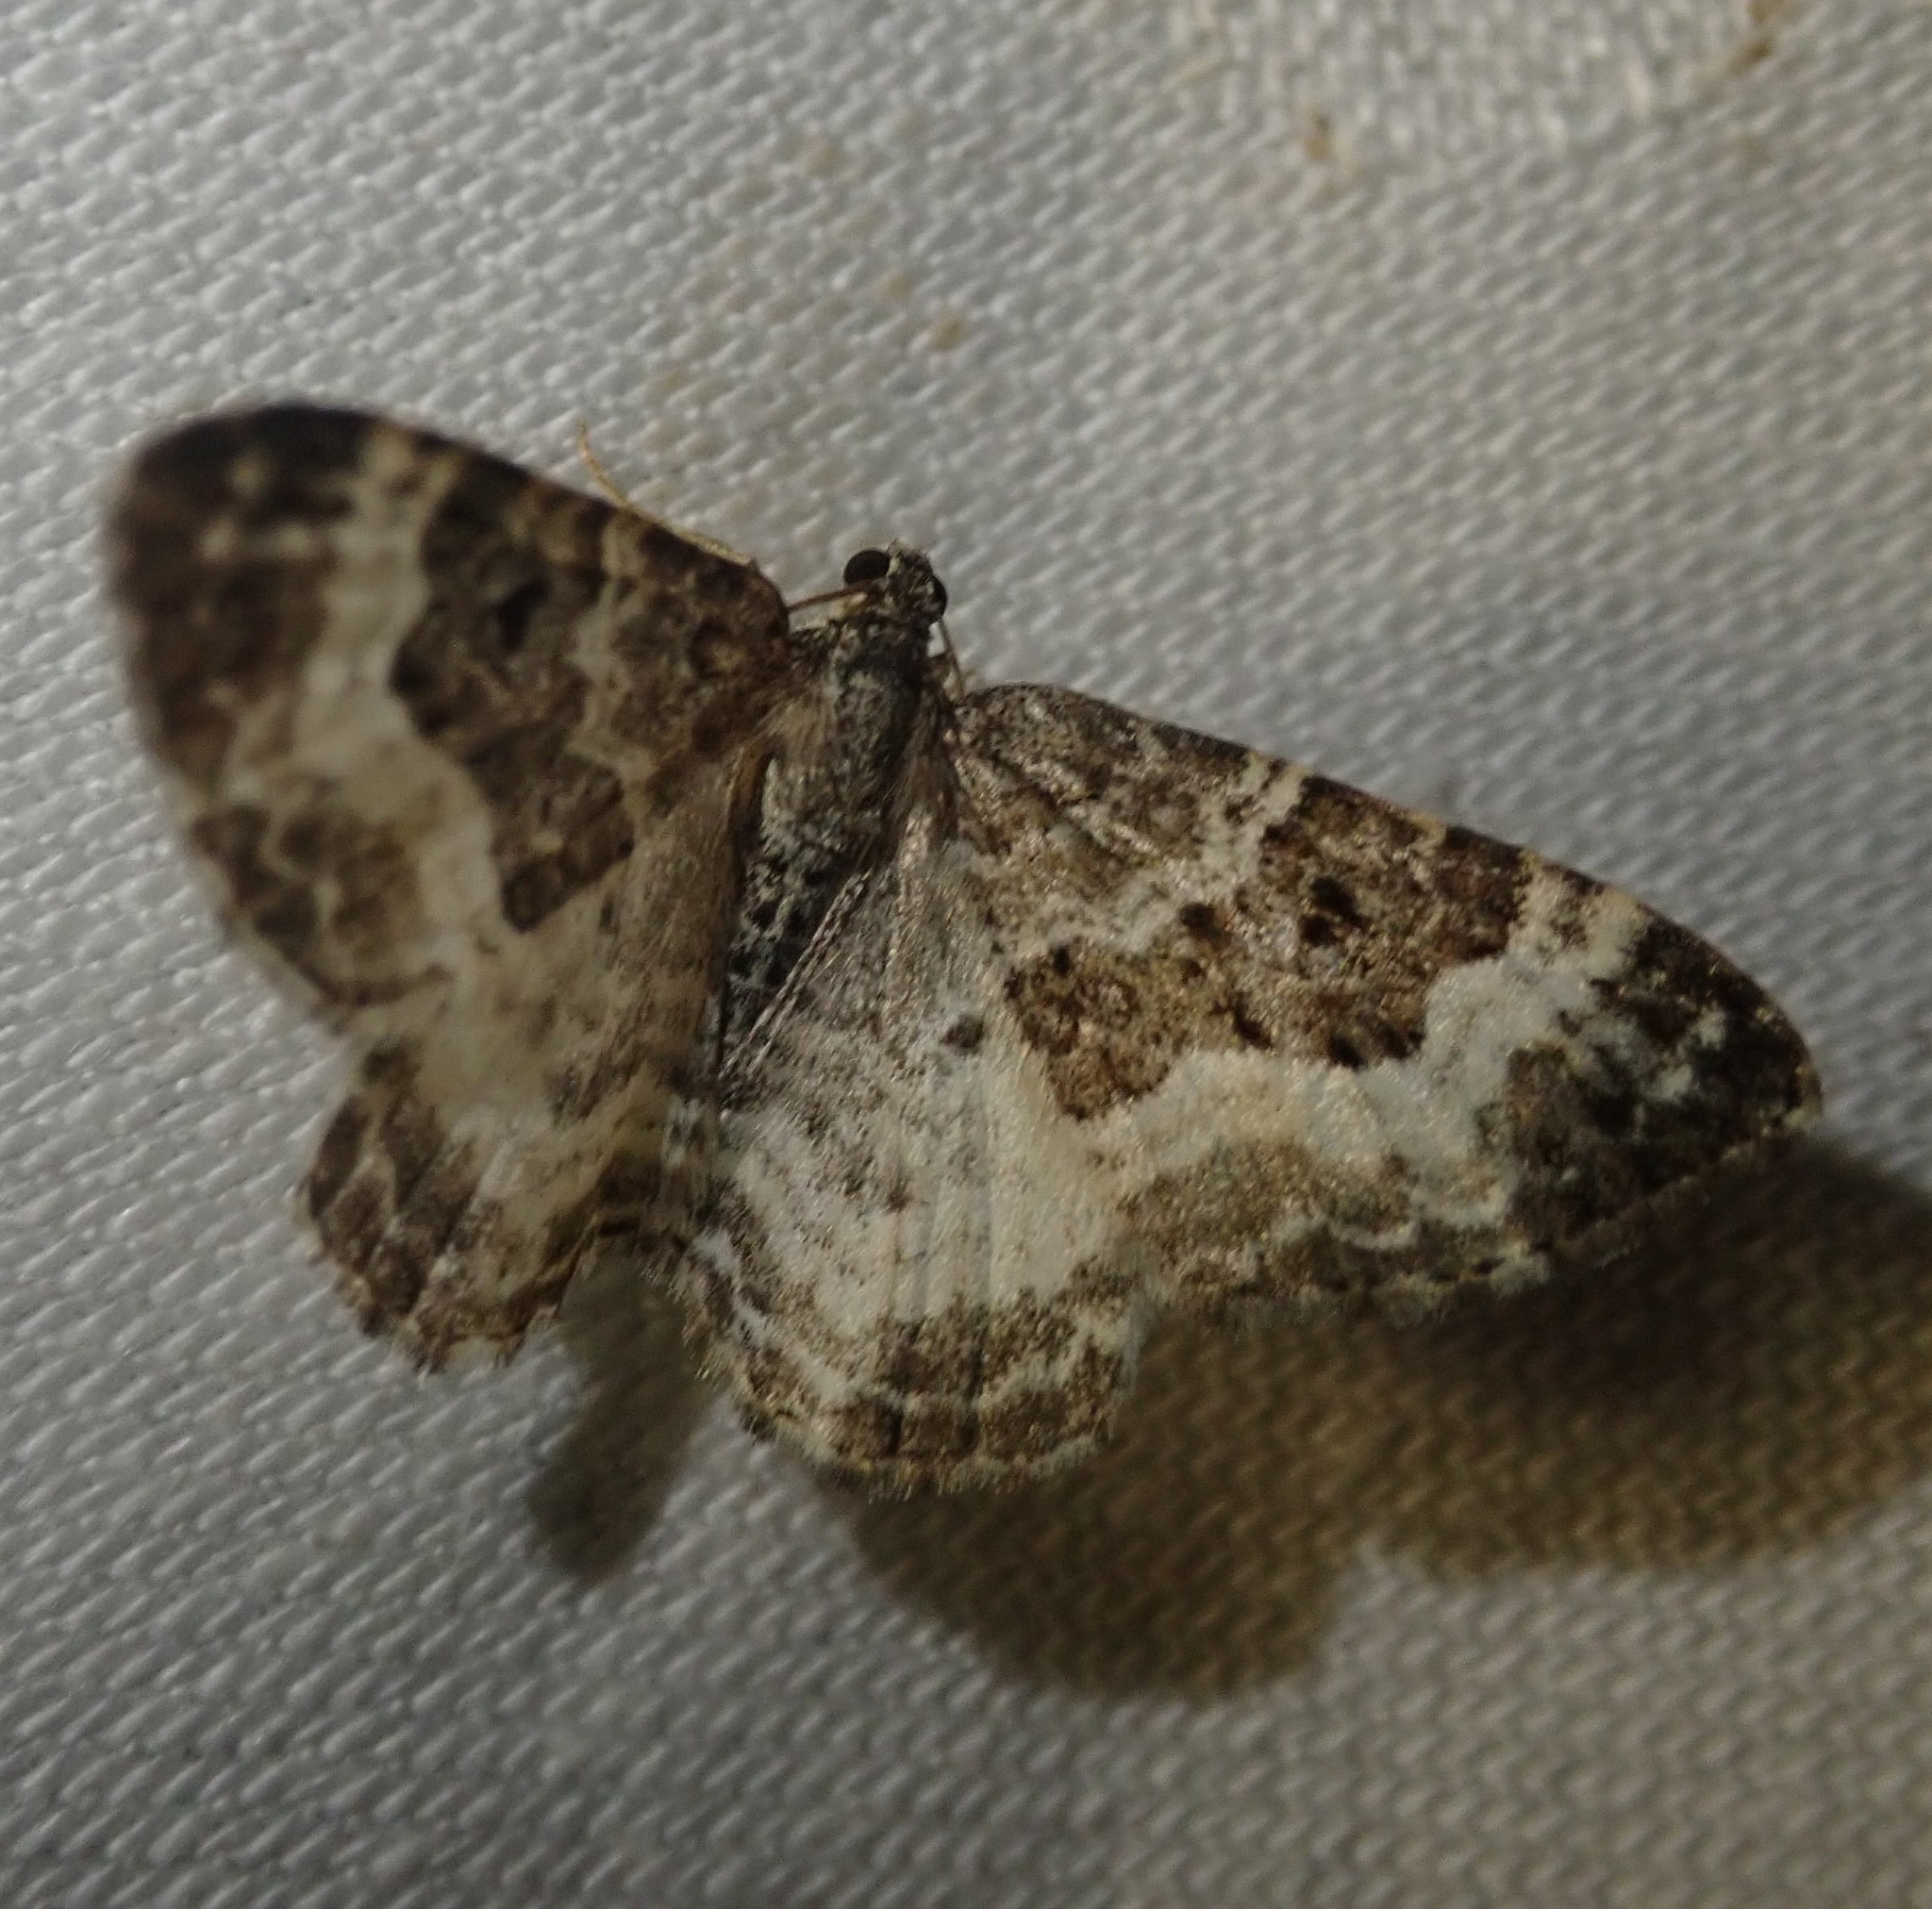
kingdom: Animalia
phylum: Arthropoda
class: Insecta
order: Lepidoptera
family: Geometridae
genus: Epirrhoe
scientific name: Epirrhoe alternata
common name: Common carpet
